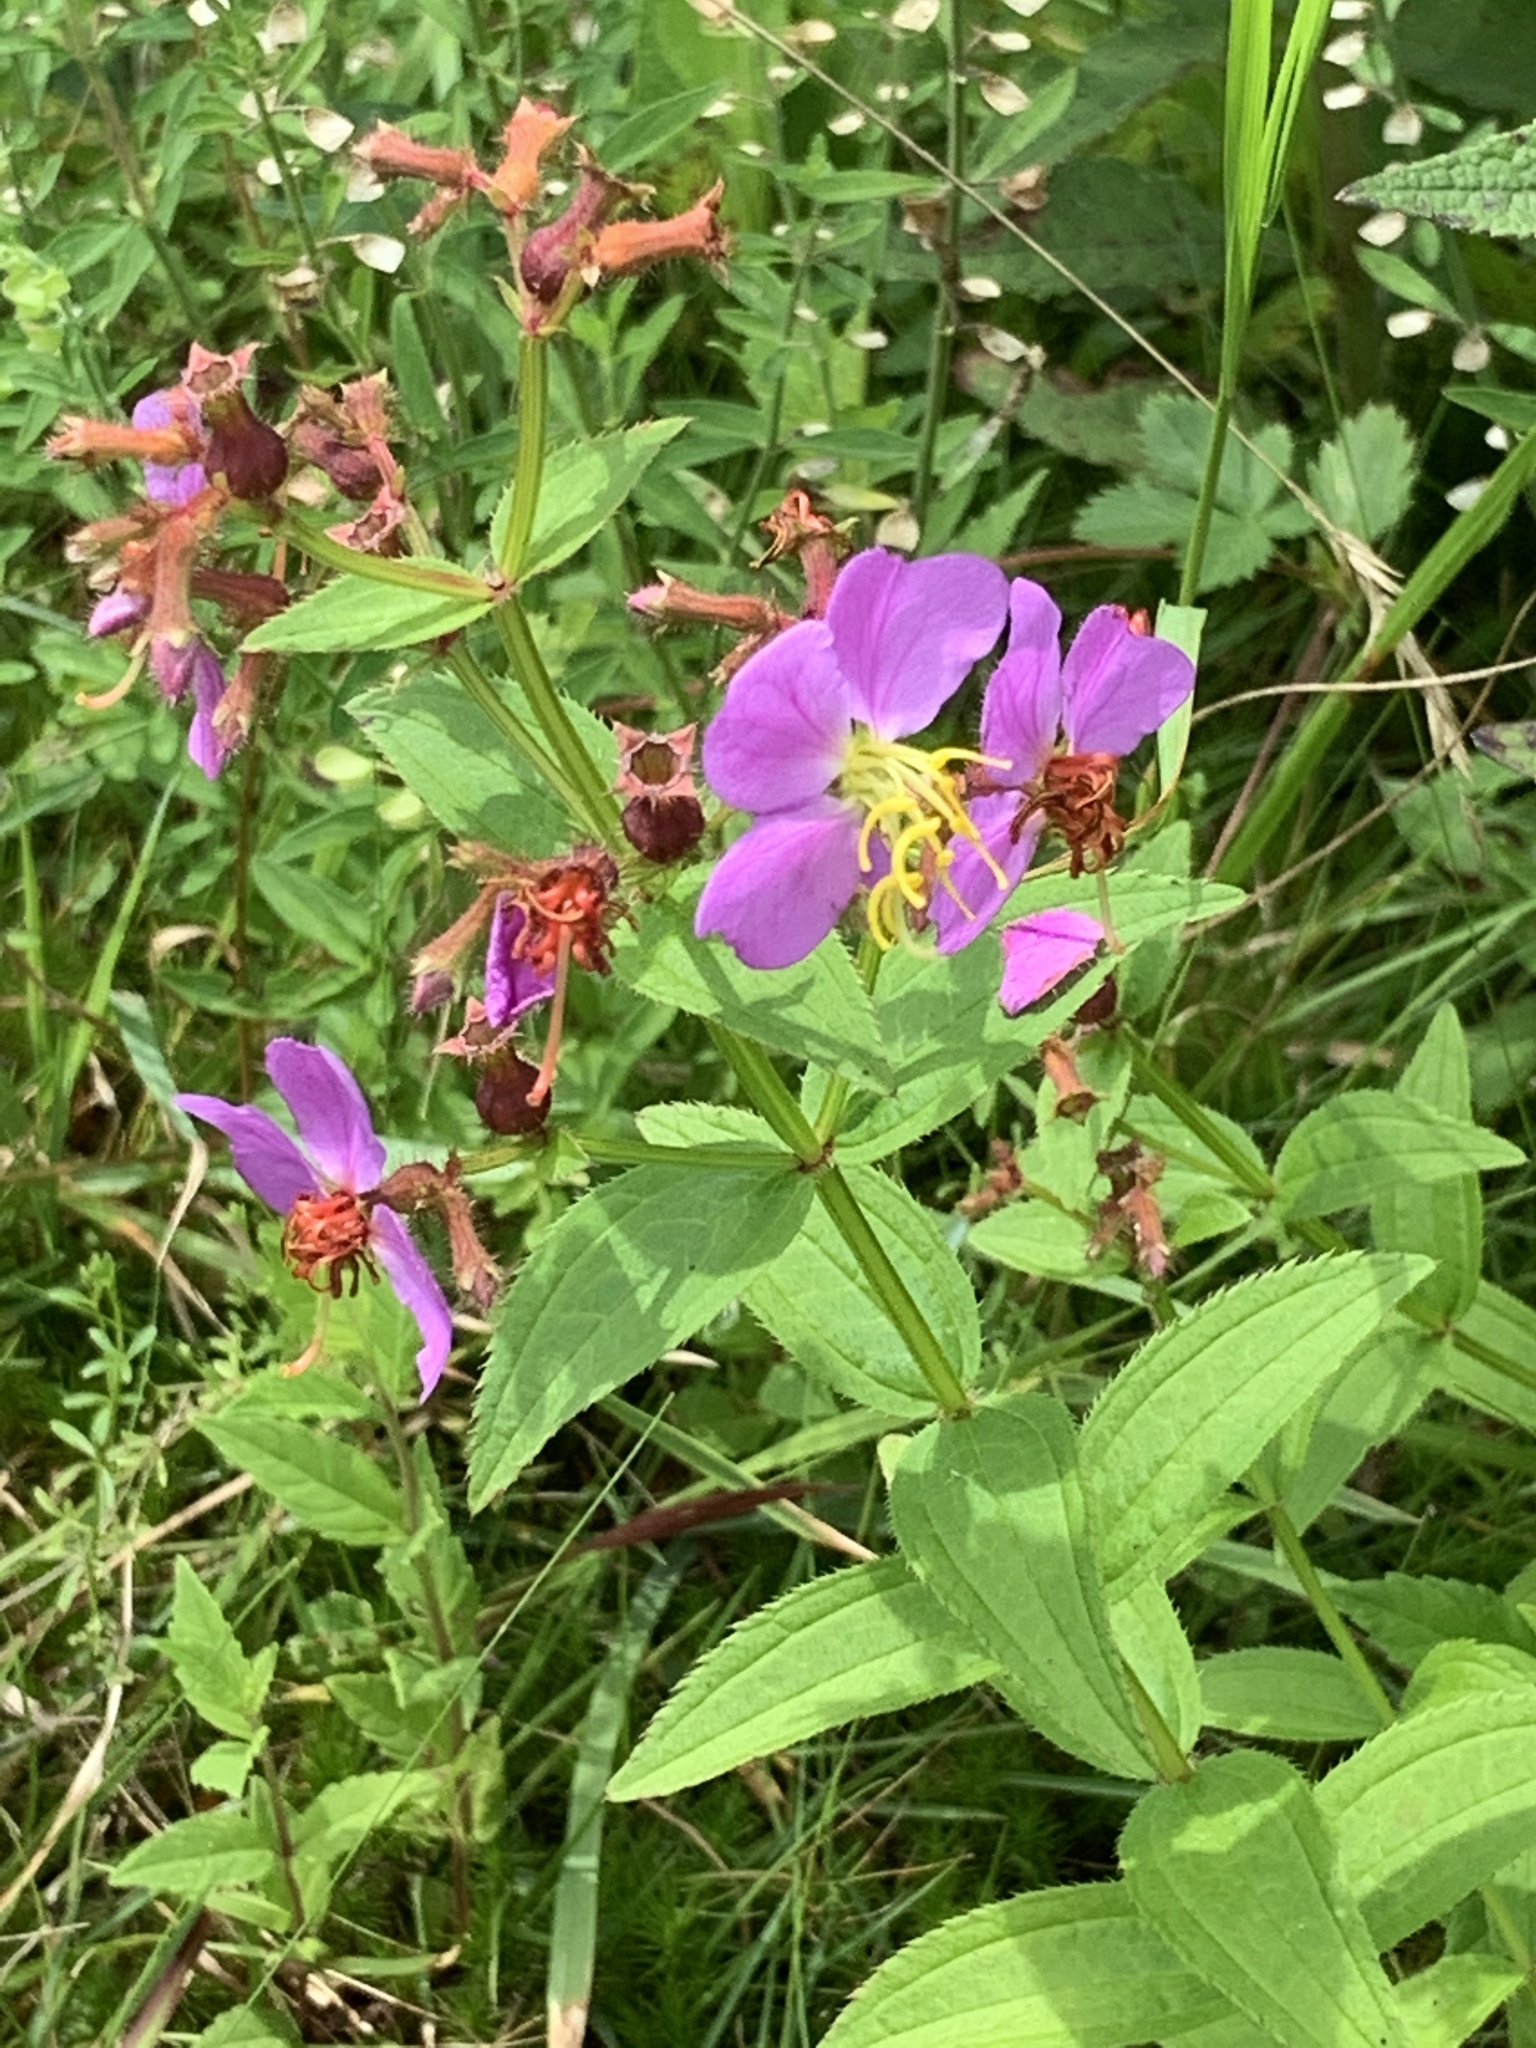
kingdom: Plantae
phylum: Tracheophyta
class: Magnoliopsida
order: Myrtales
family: Melastomataceae
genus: Rhexia
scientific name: Rhexia virginica
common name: Common meadow beauty
